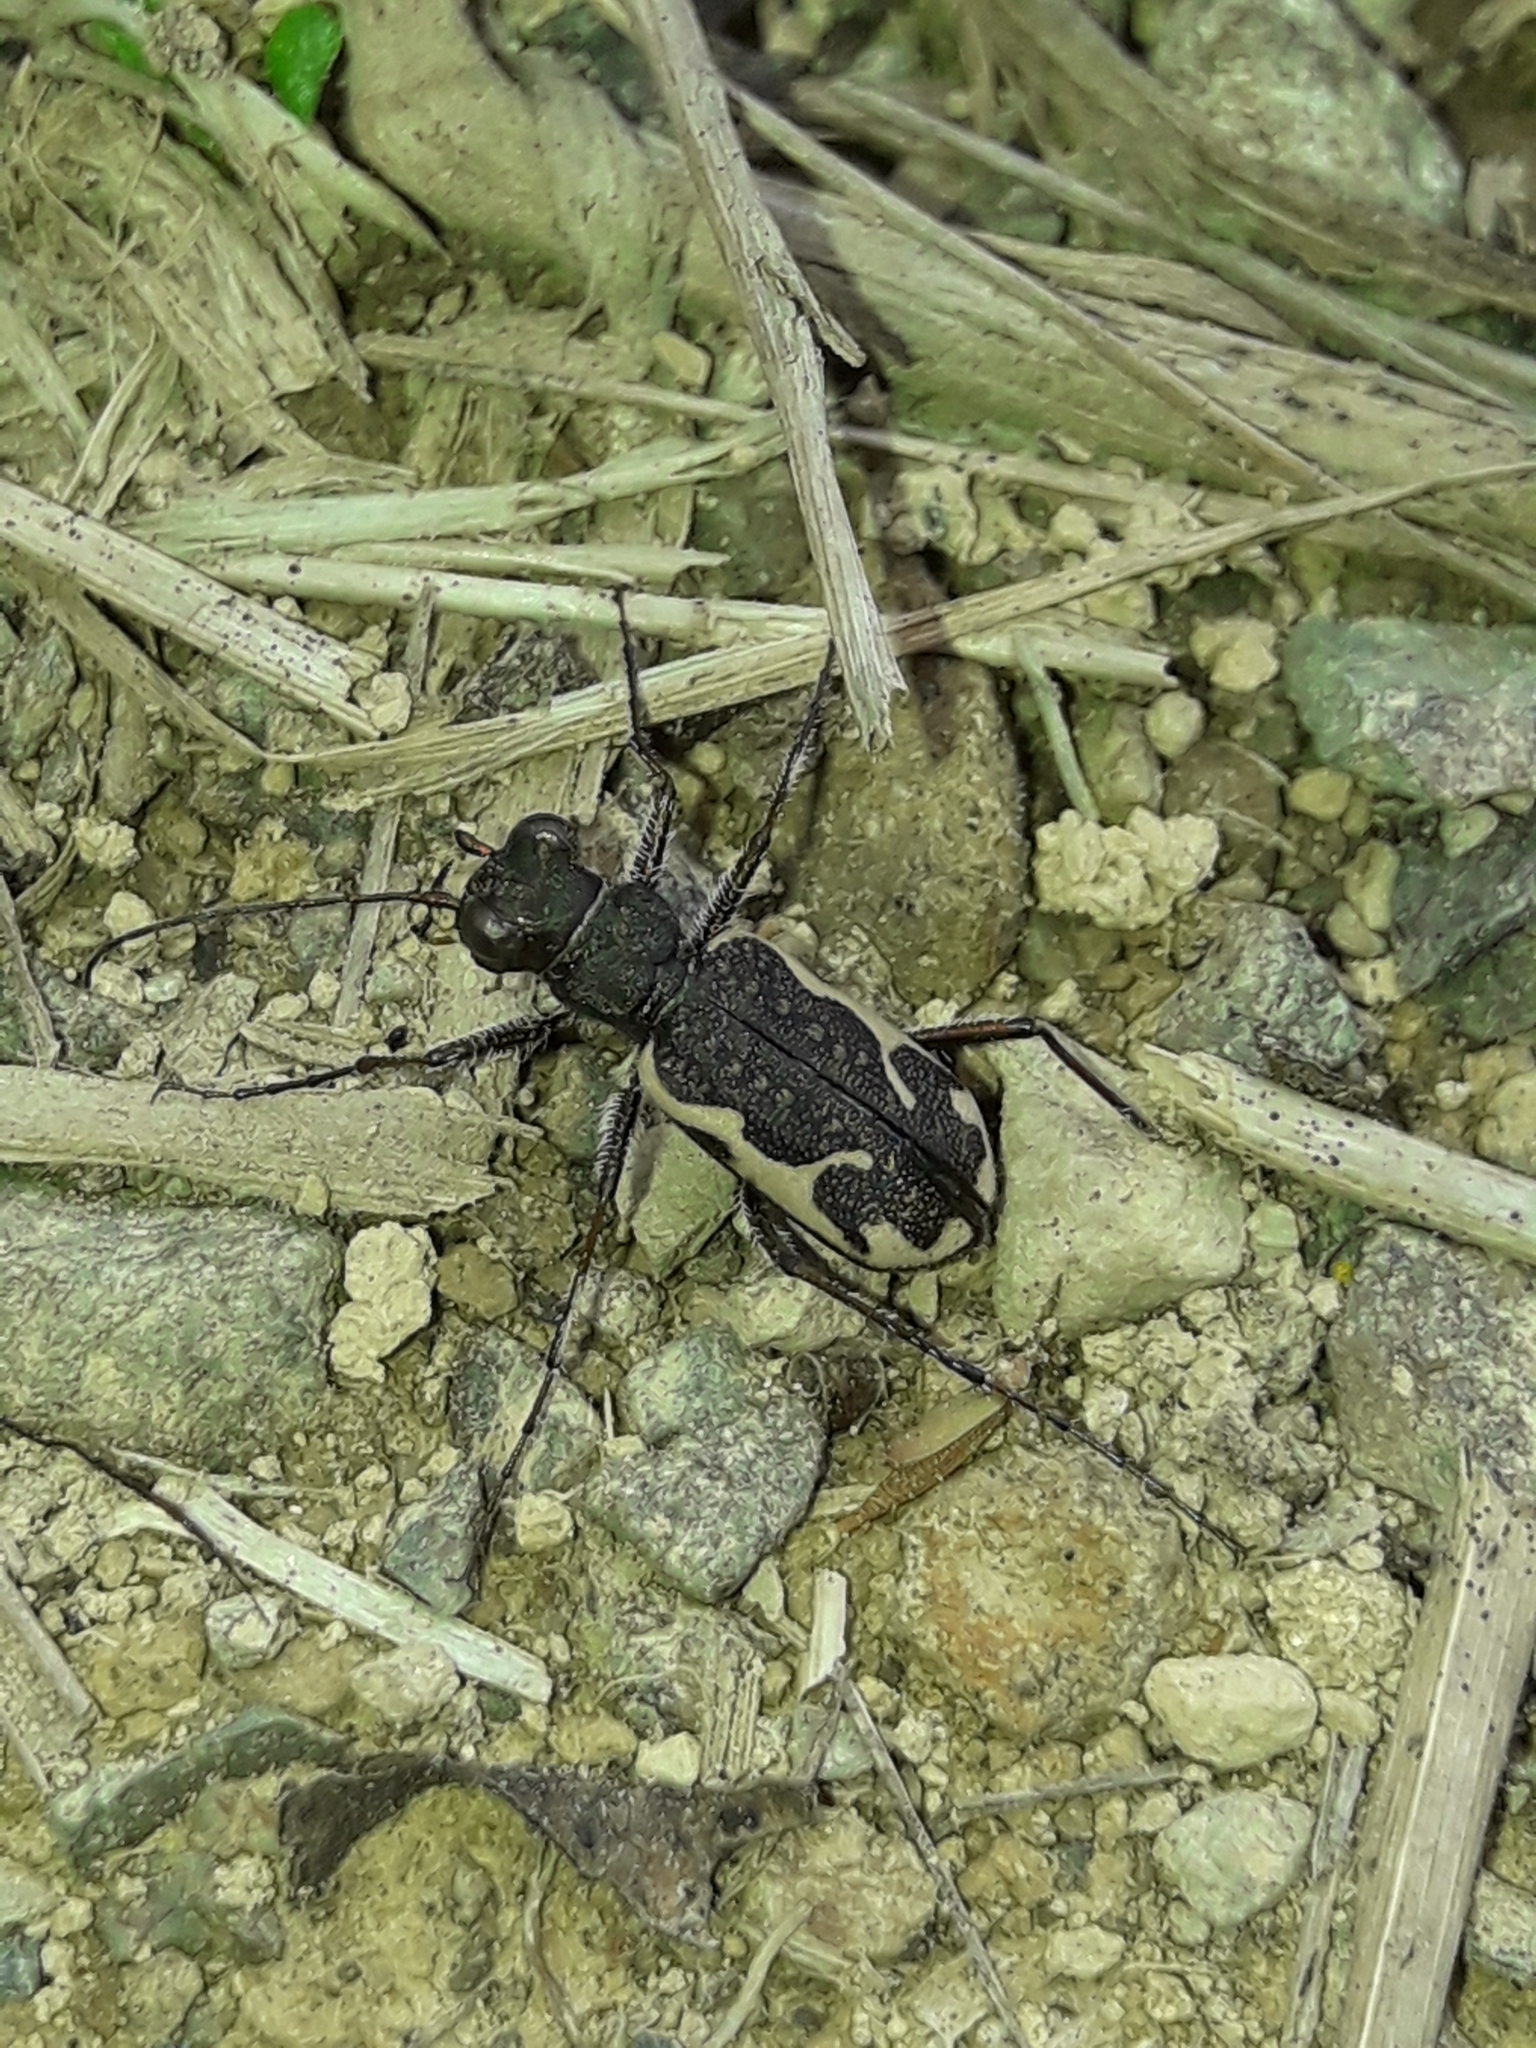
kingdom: Animalia
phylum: Arthropoda
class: Insecta
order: Coleoptera
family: Carabidae
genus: Neocicindela
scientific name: Neocicindela tuberculata
